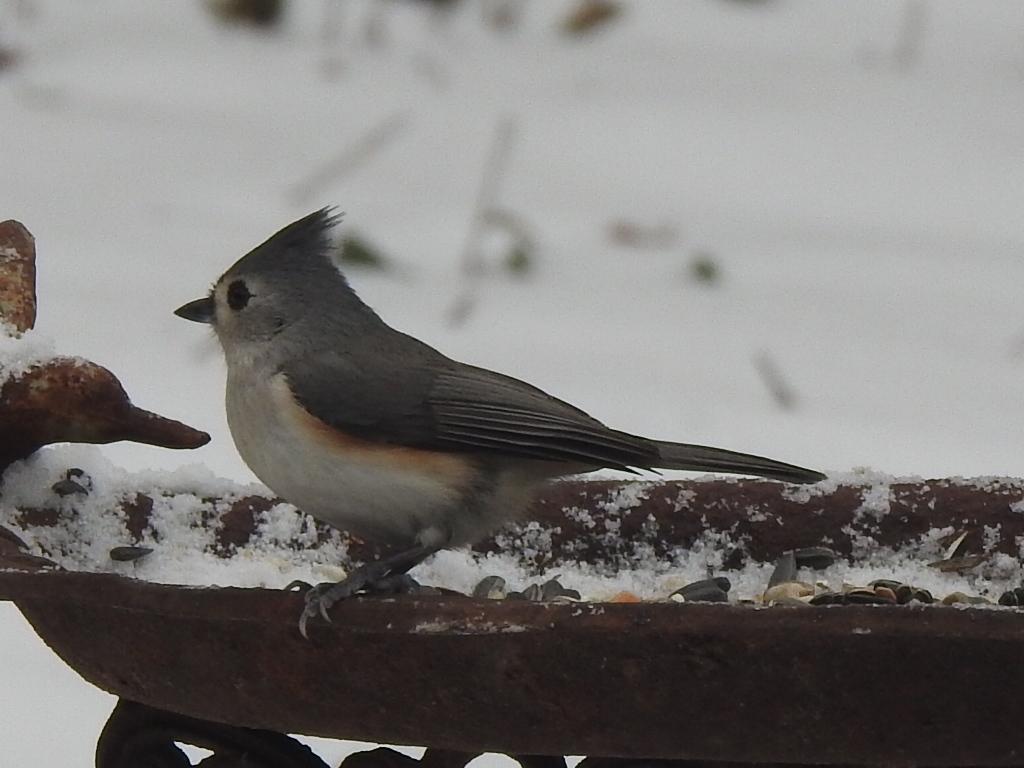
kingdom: Animalia
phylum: Chordata
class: Aves
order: Passeriformes
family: Paridae
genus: Baeolophus
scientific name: Baeolophus bicolor
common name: Tufted titmouse
